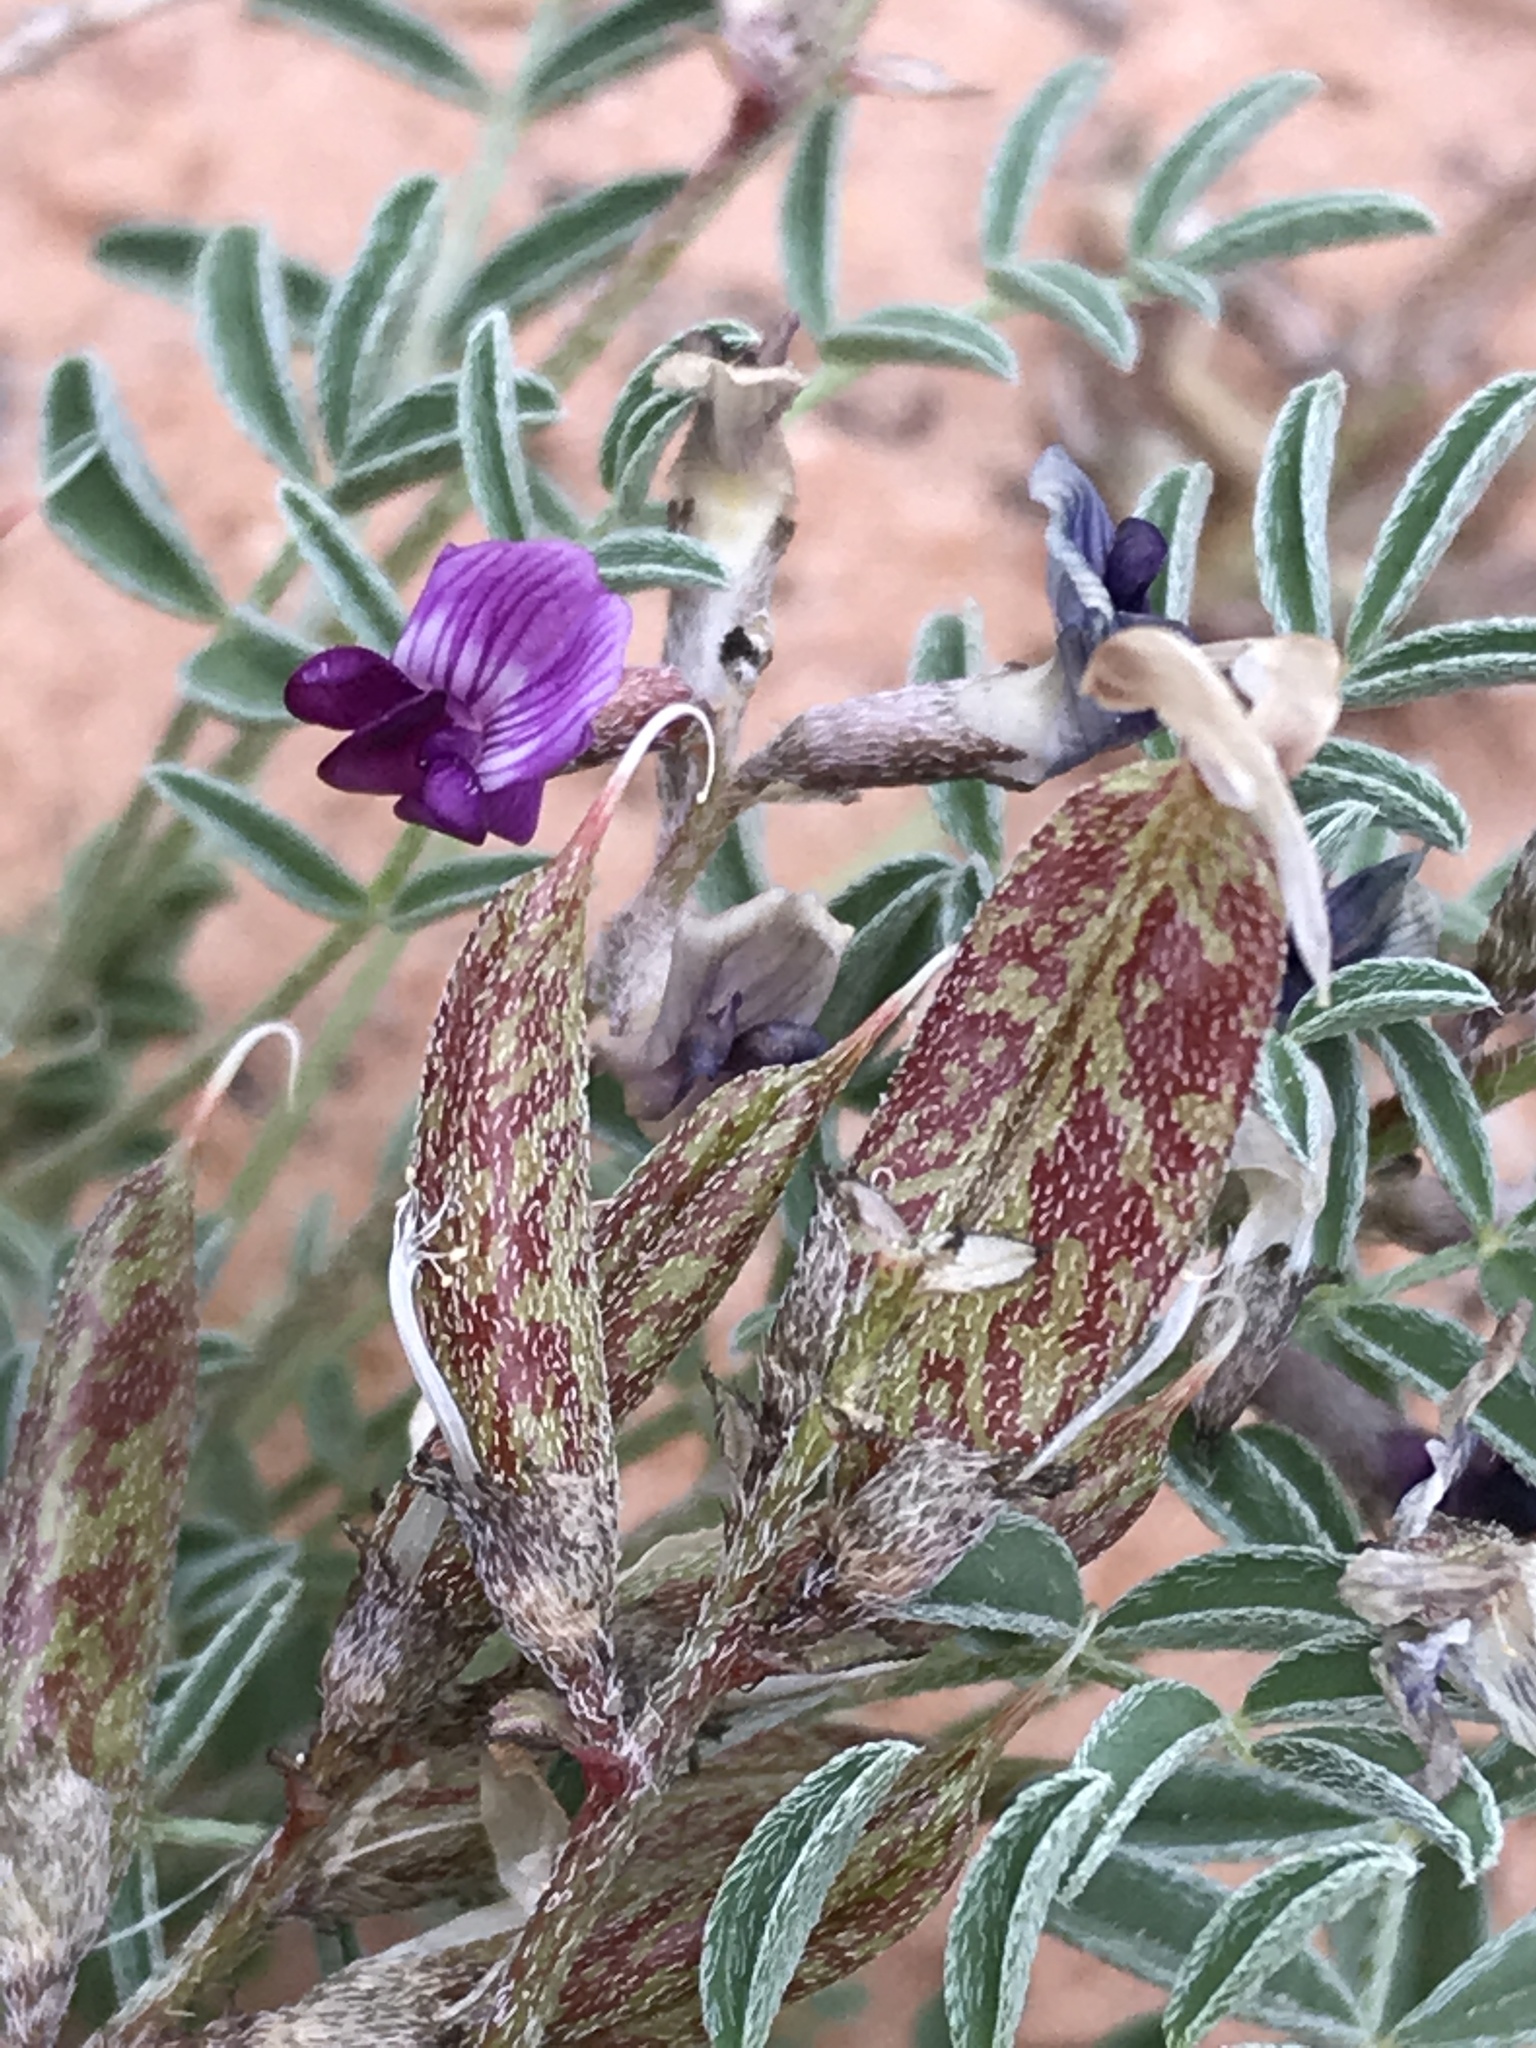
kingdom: Plantae
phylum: Tracheophyta
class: Magnoliopsida
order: Fabales
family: Fabaceae
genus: Astragalus
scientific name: Astragalus monumentalis
